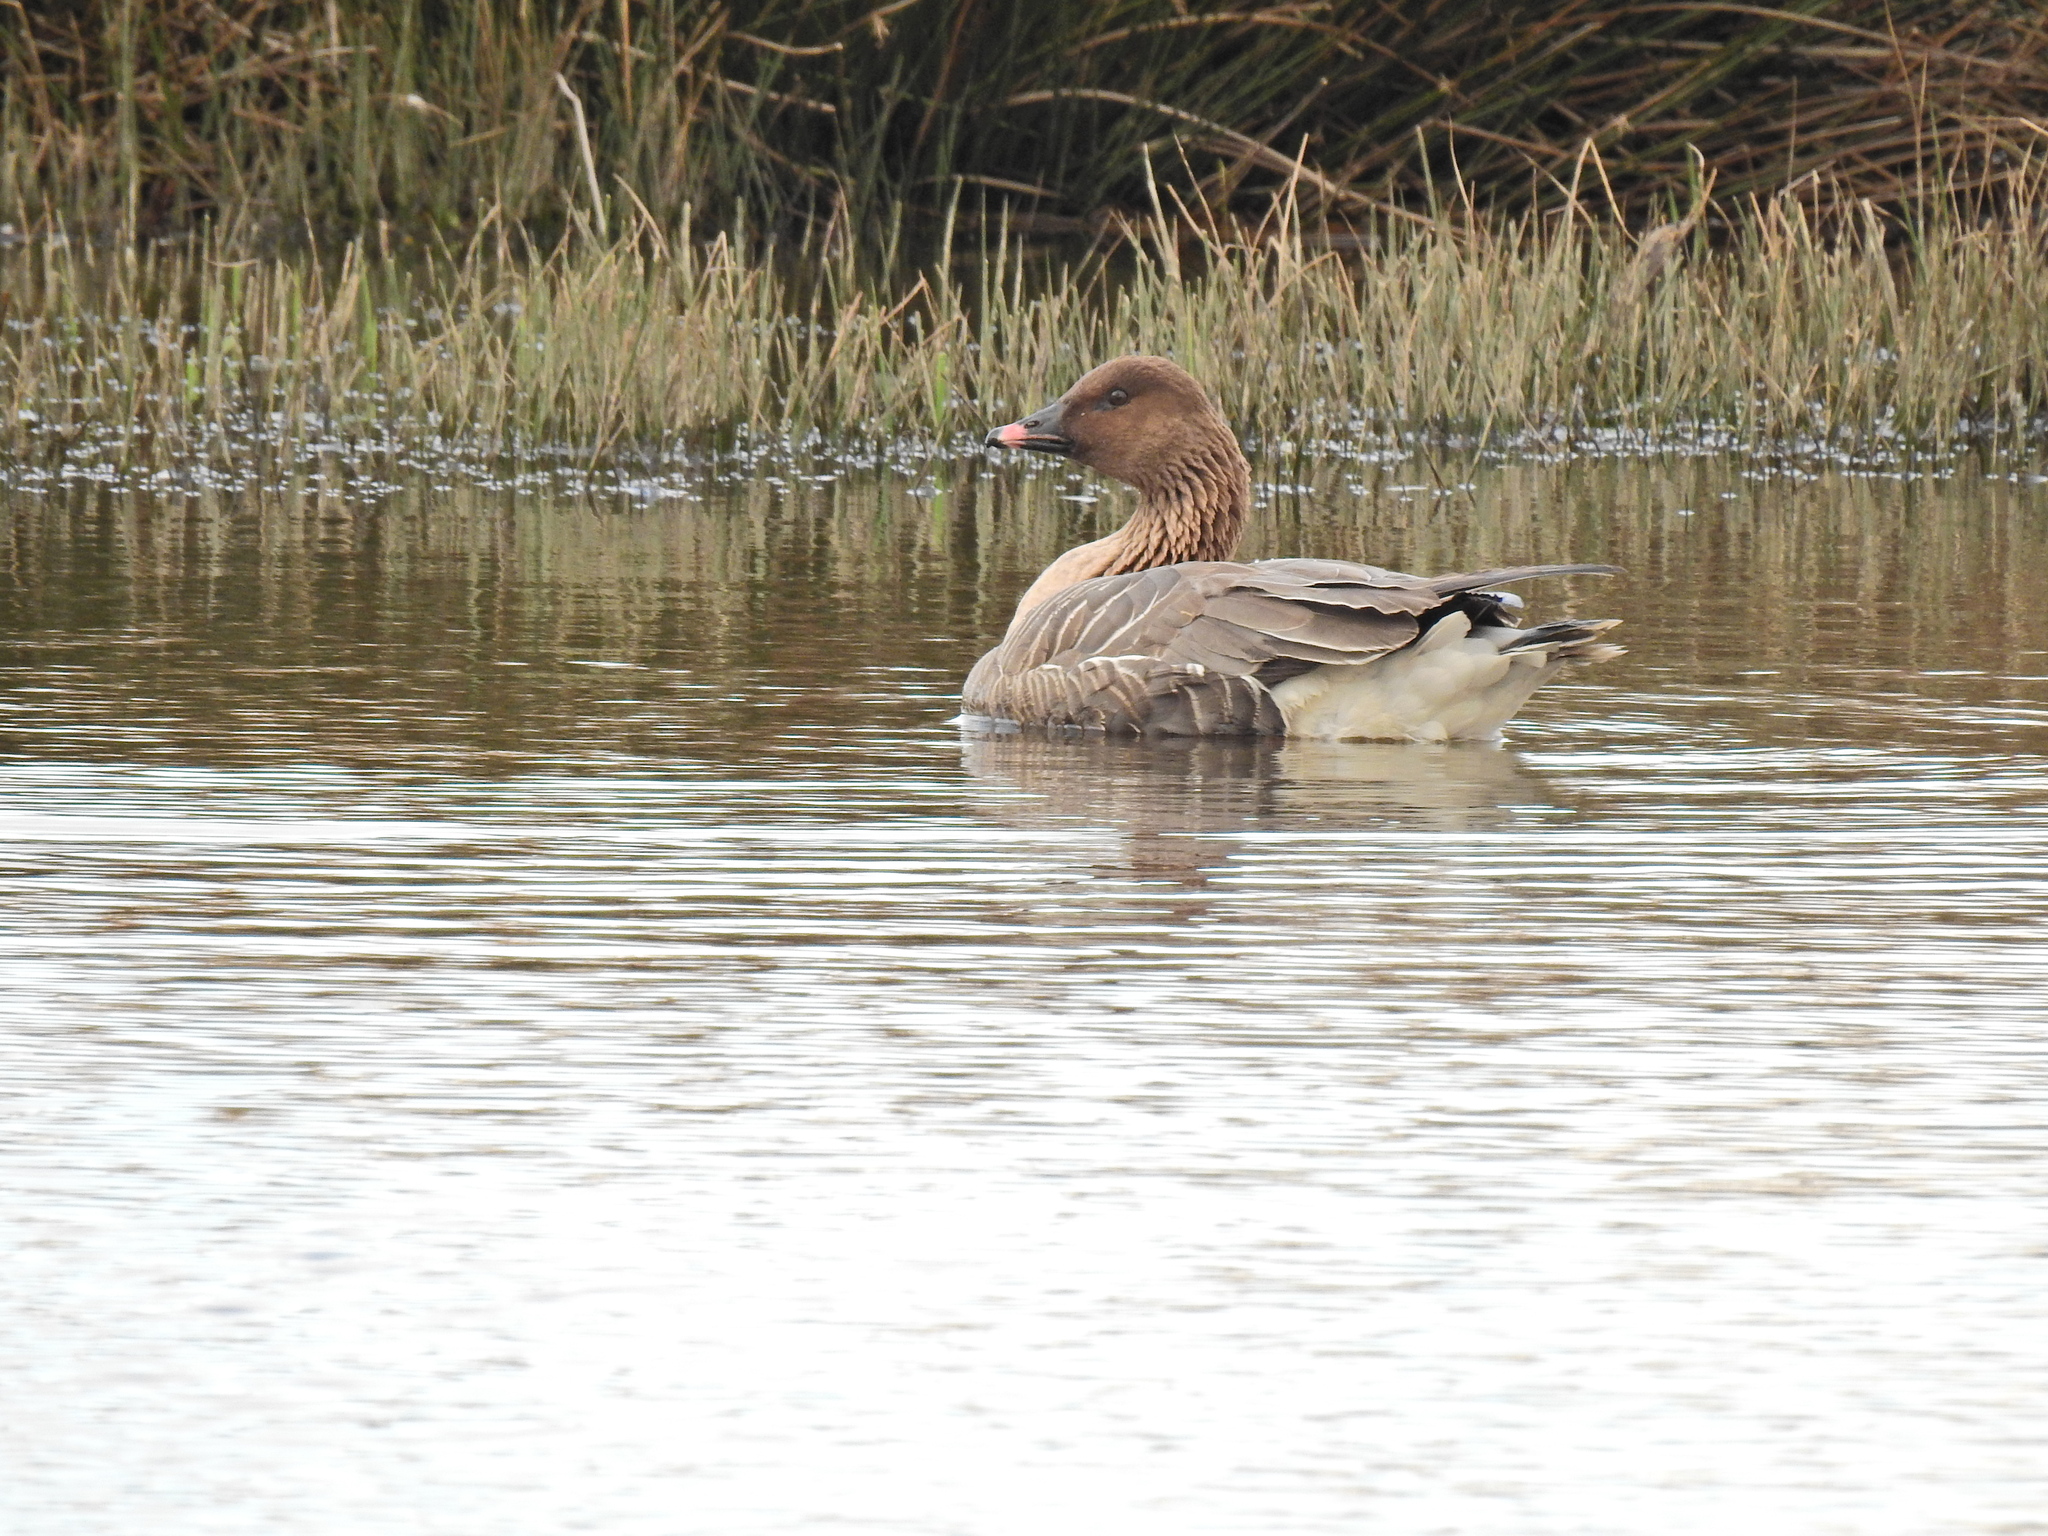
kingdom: Animalia
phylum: Chordata
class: Aves
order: Anseriformes
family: Anatidae
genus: Anser
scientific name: Anser brachyrhynchus
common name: Pink-footed goose
